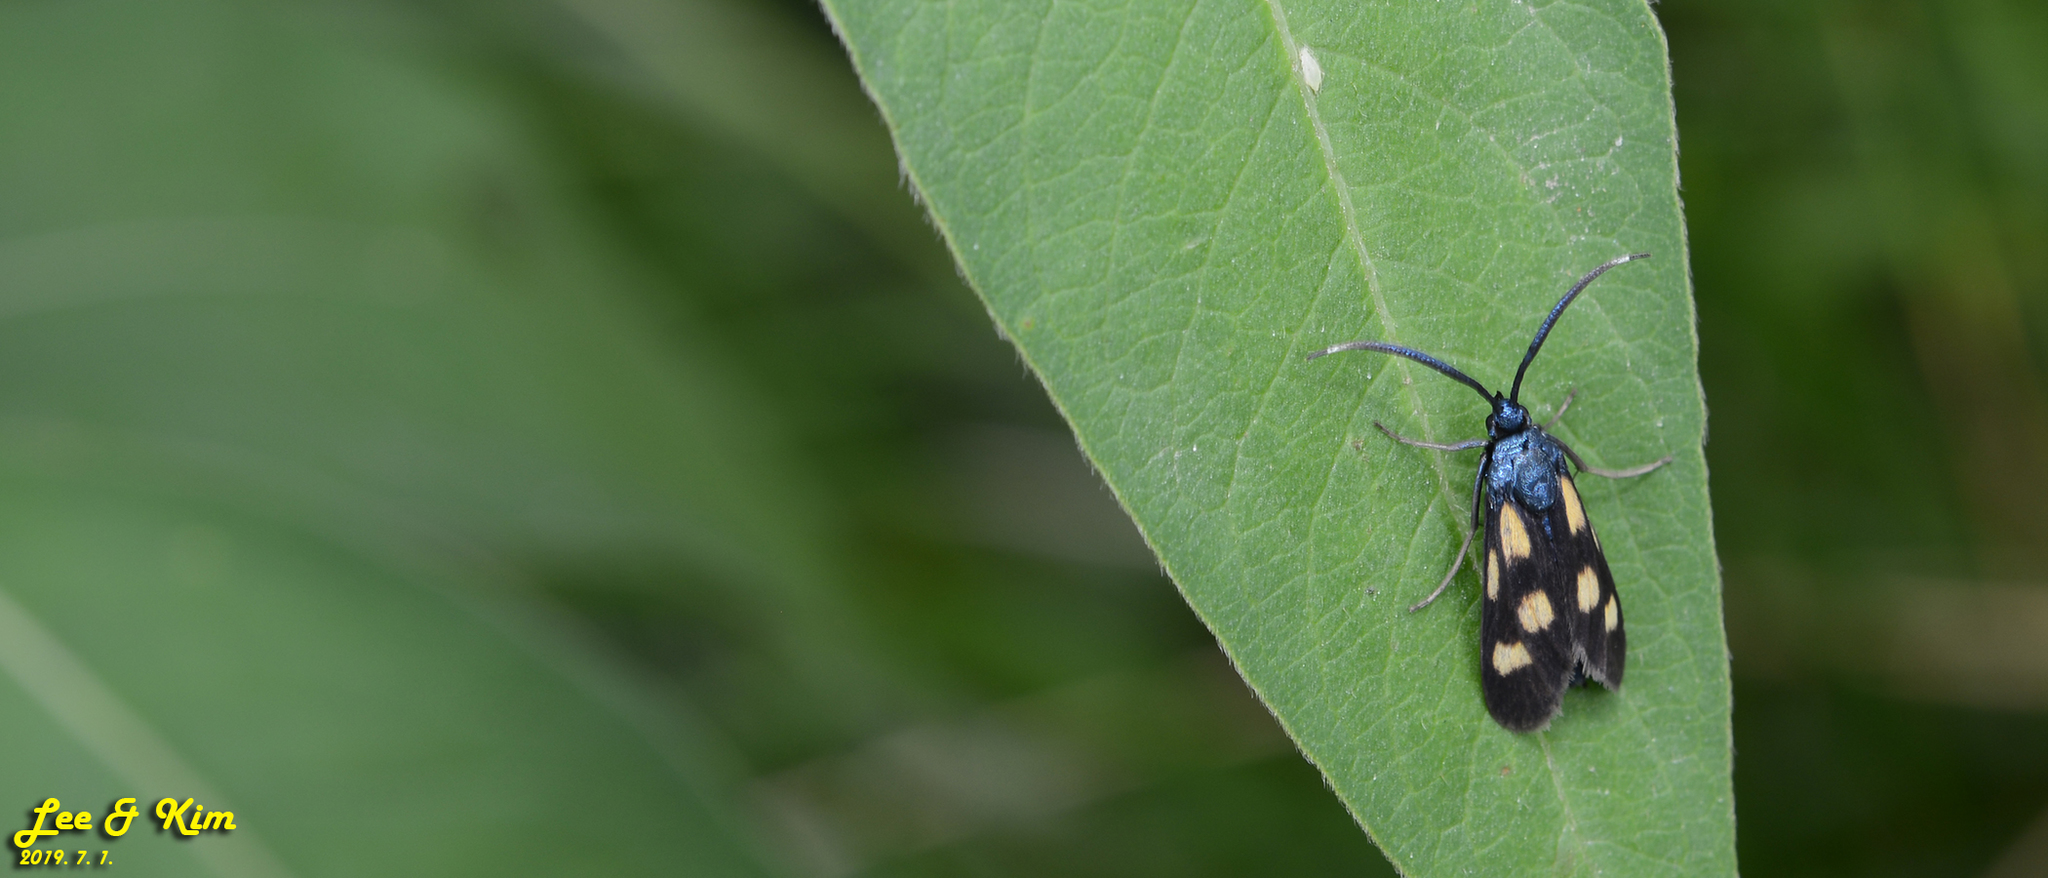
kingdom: Animalia
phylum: Arthropoda
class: Insecta
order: Lepidoptera
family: Zygaenidae
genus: Artona
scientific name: Artona
